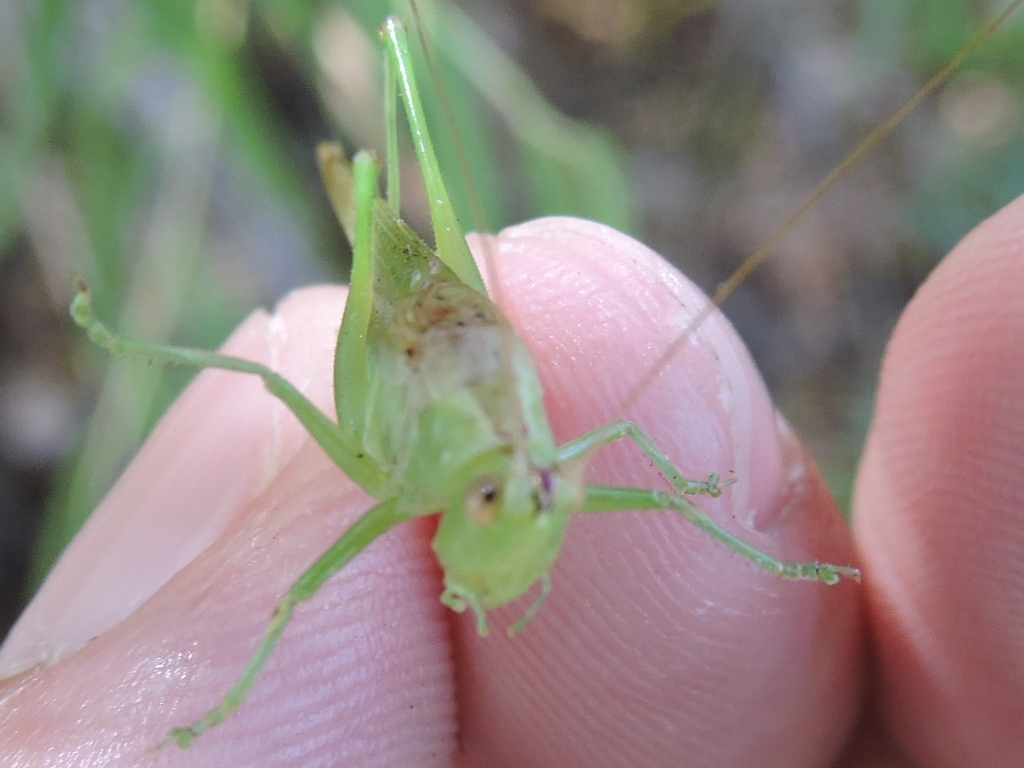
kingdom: Animalia
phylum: Arthropoda
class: Insecta
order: Orthoptera
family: Tettigoniidae
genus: Conocephalus
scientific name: Conocephalus fasciatus
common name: Slender meadow katydid
